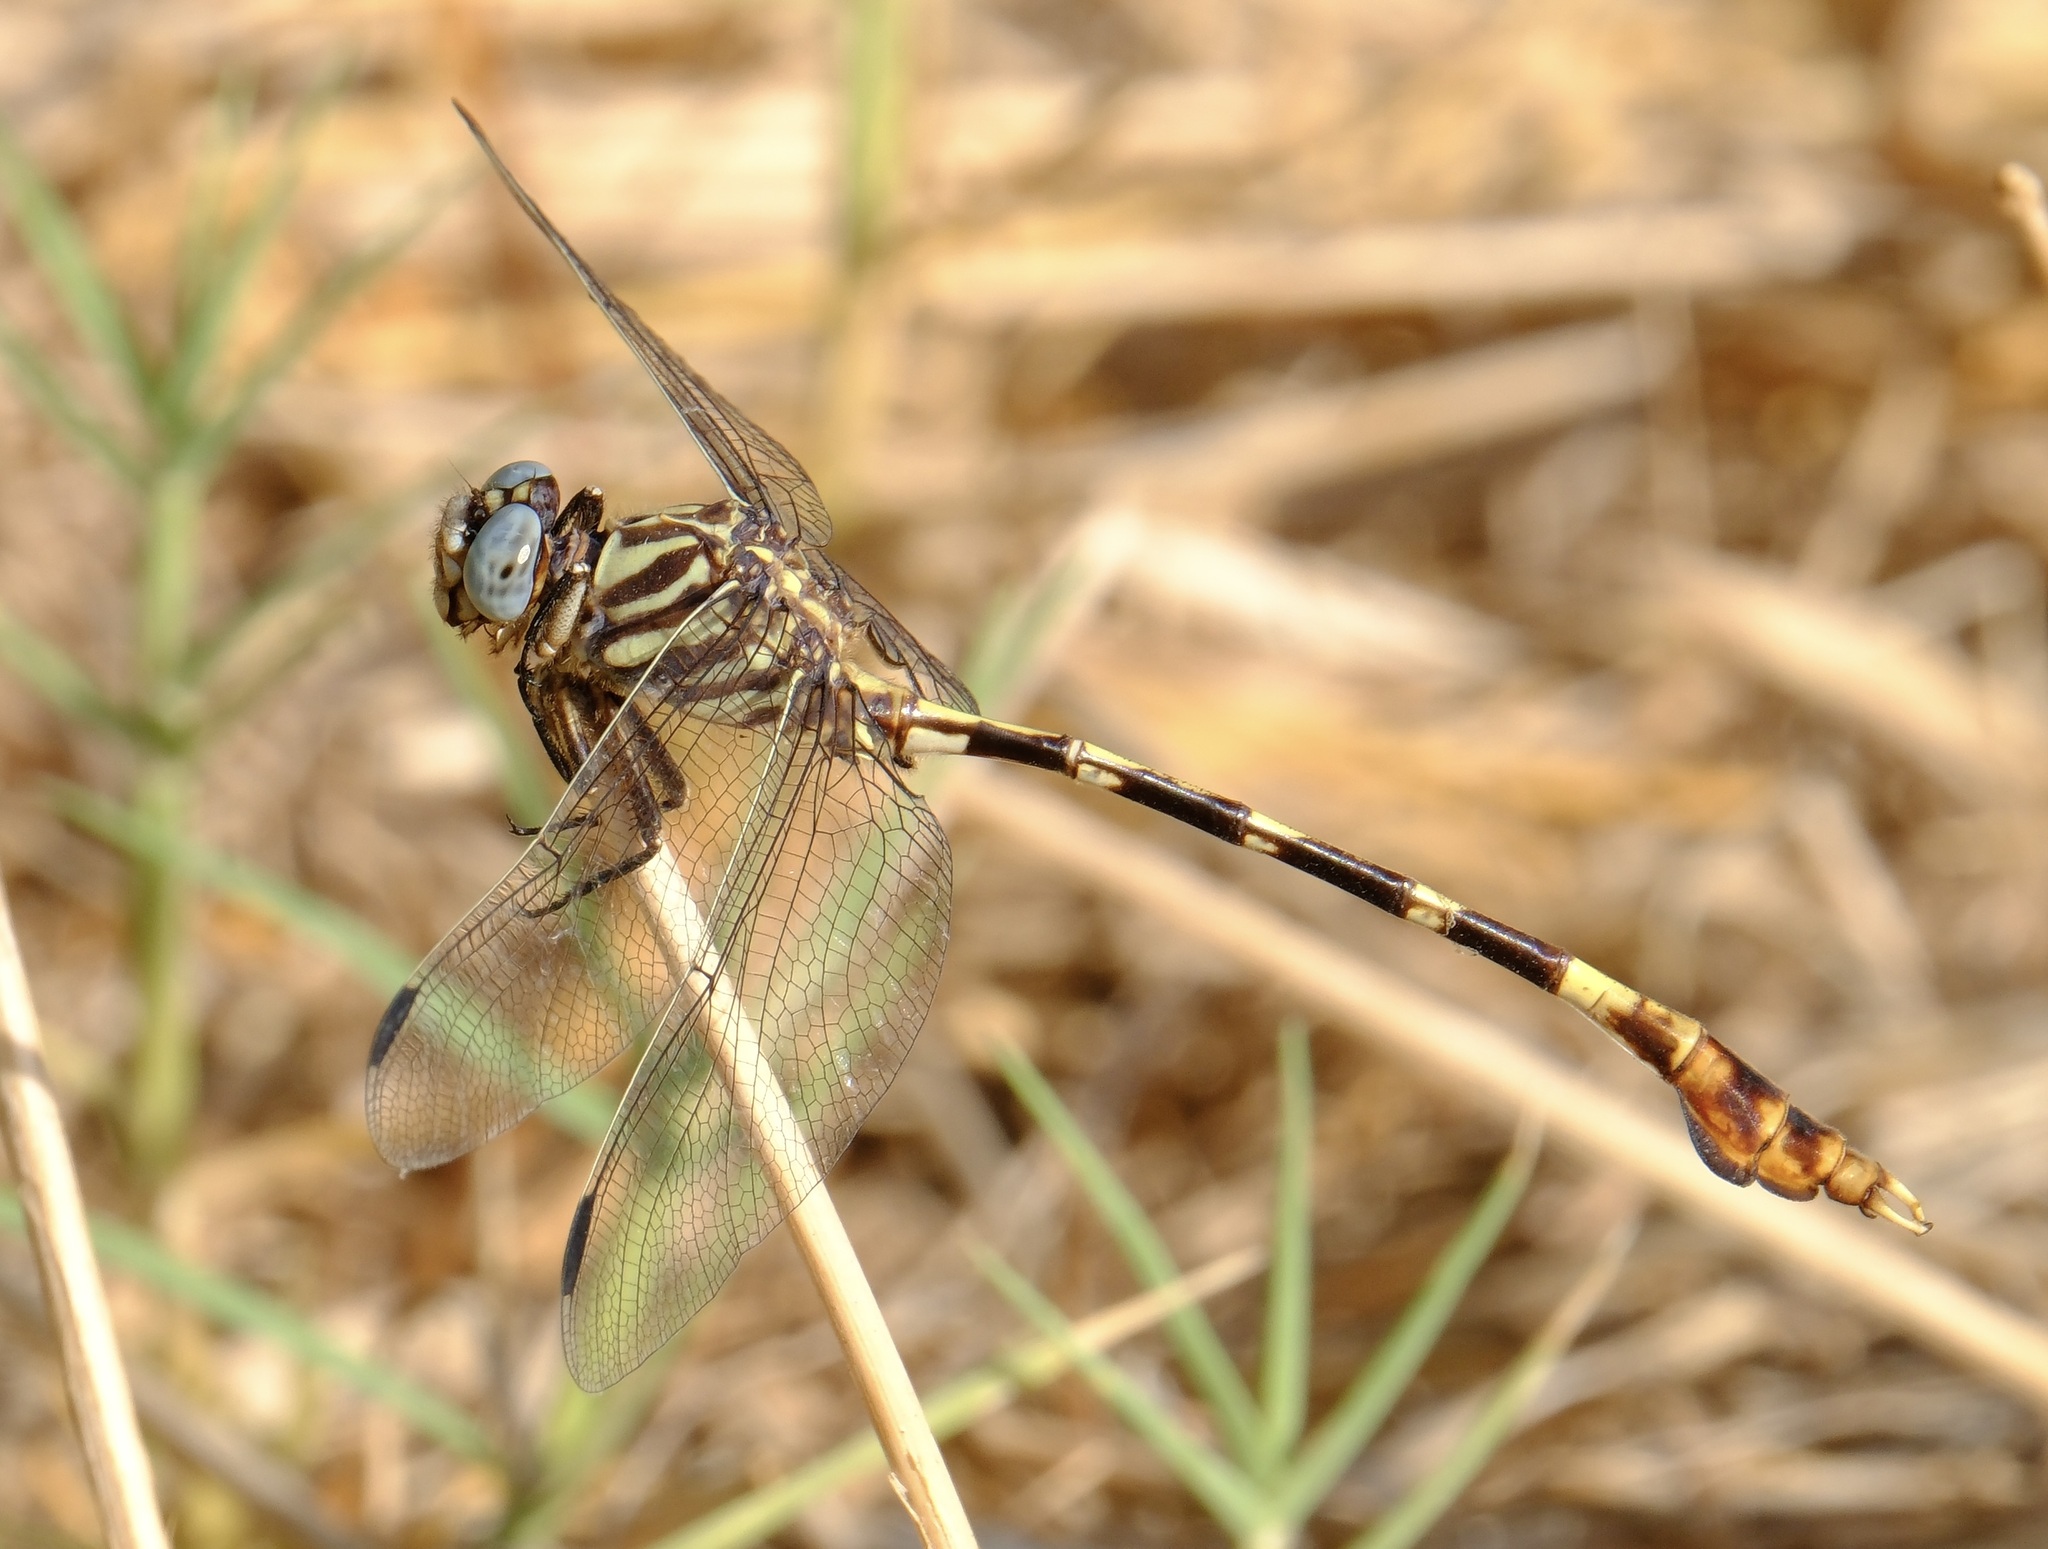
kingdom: Animalia
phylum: Arthropoda
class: Insecta
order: Odonata
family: Gomphidae
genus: Phyllogomphoides
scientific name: Phyllogomphoides albrighti
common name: Five-striped leaftail
